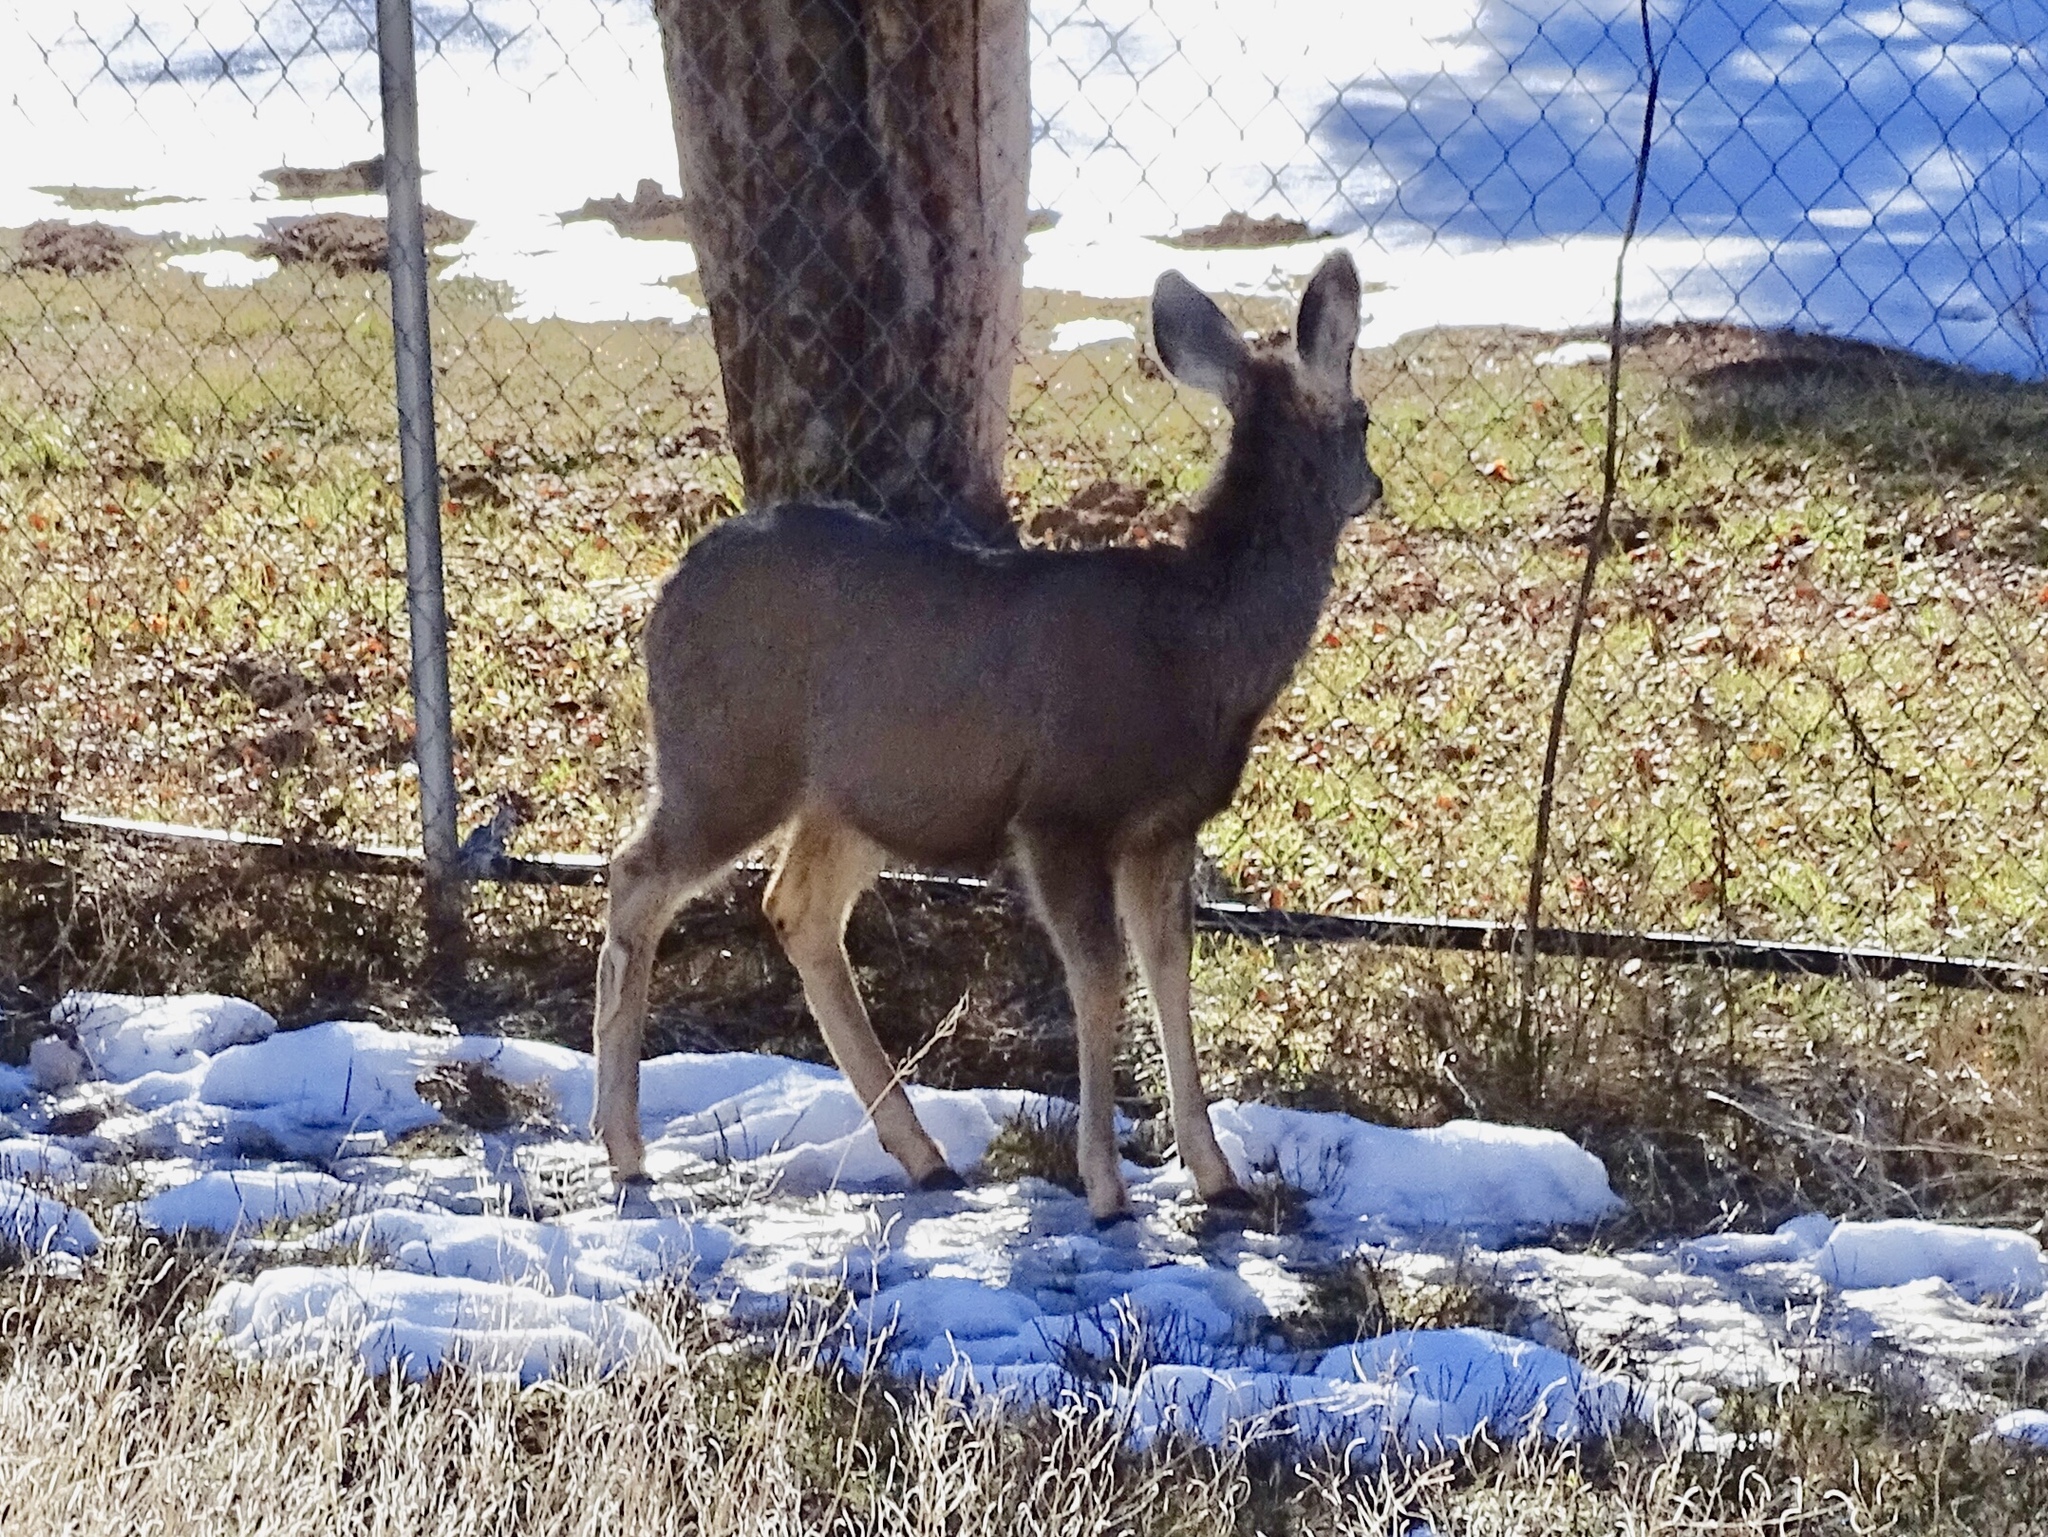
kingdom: Animalia
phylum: Chordata
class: Mammalia
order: Artiodactyla
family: Cervidae
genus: Odocoileus
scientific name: Odocoileus hemionus
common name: Mule deer
